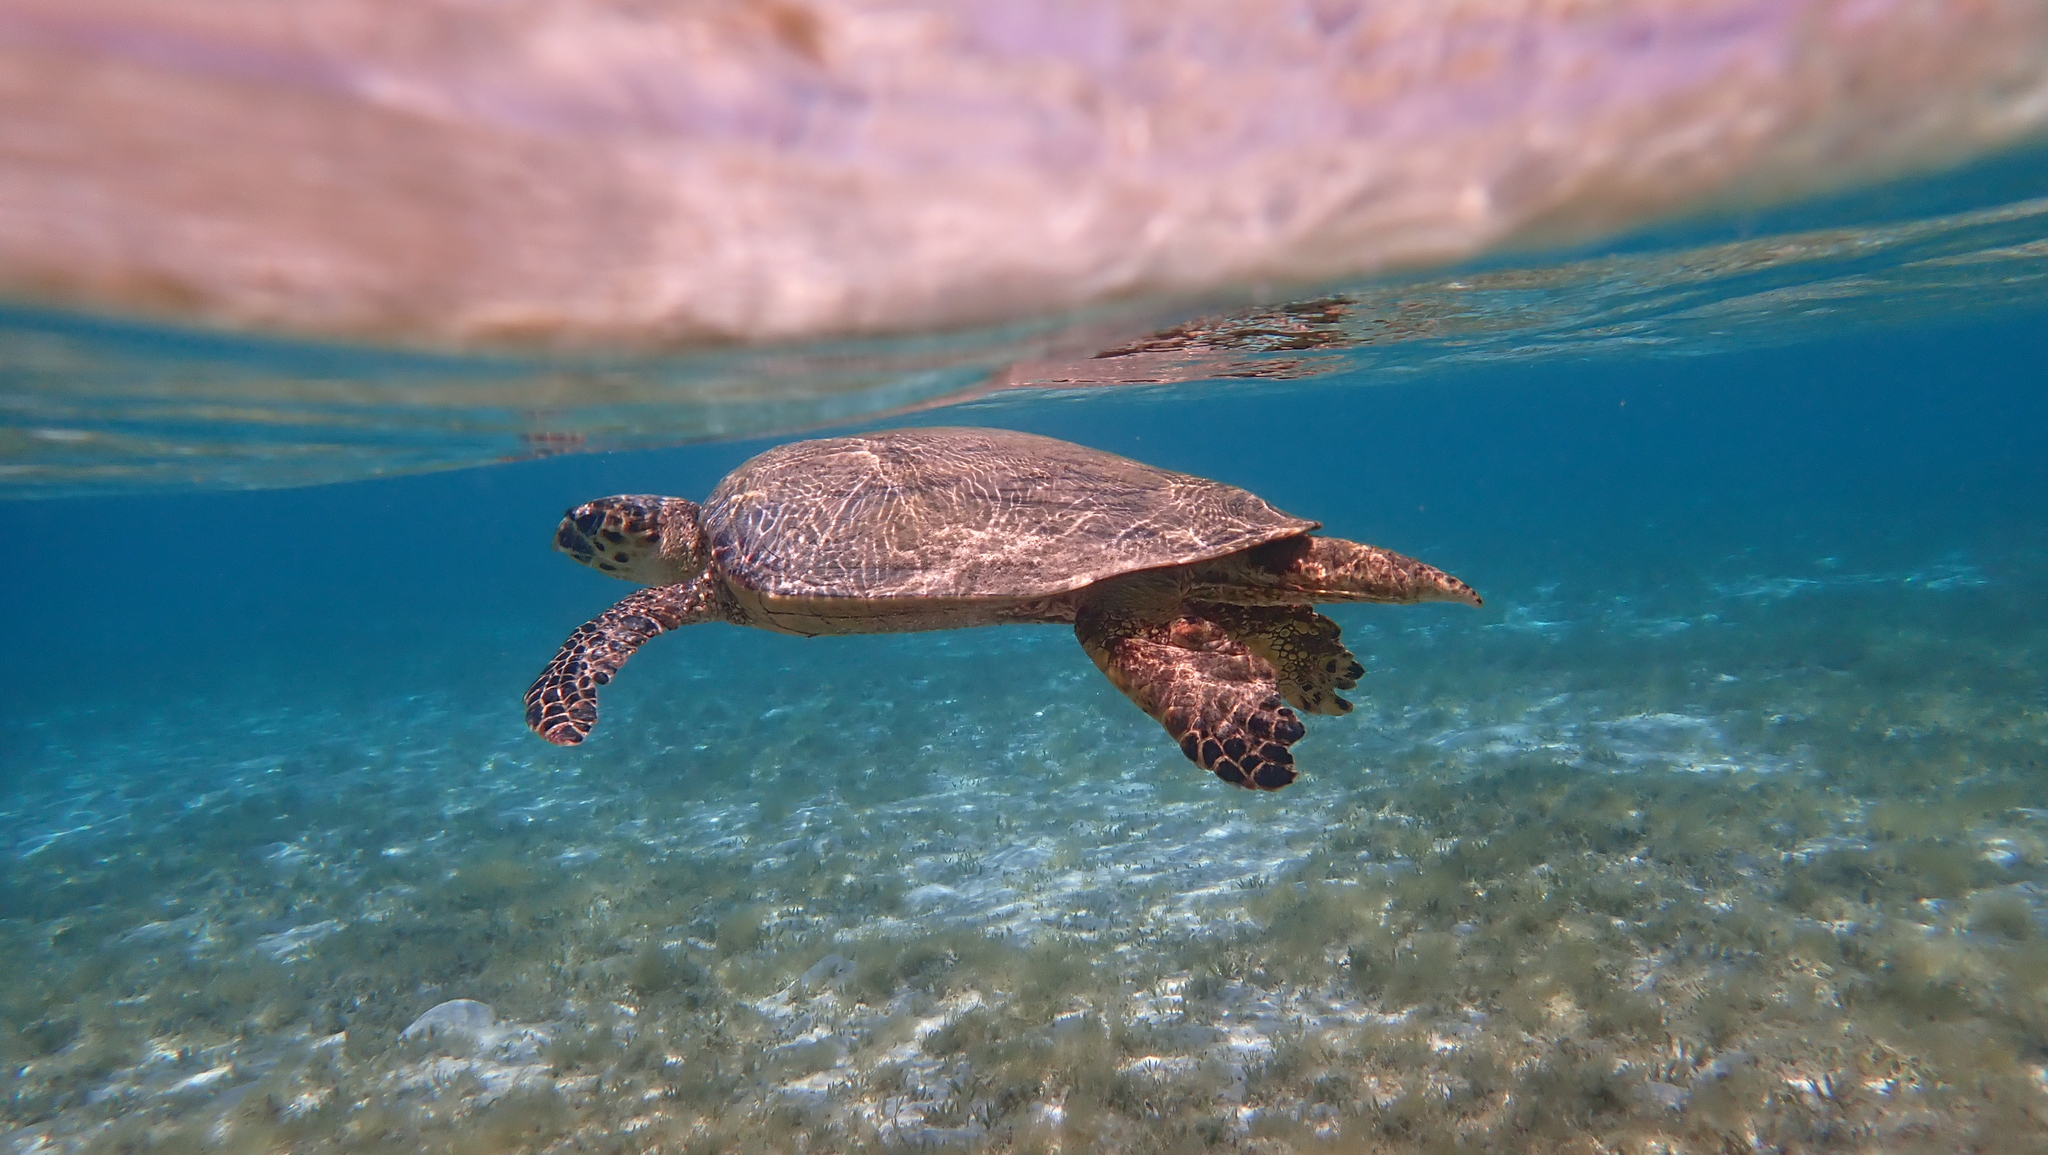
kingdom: Animalia
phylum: Chordata
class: Testudines
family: Cheloniidae
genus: Eretmochelys
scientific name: Eretmochelys imbricata
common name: Hawksbill turtle
